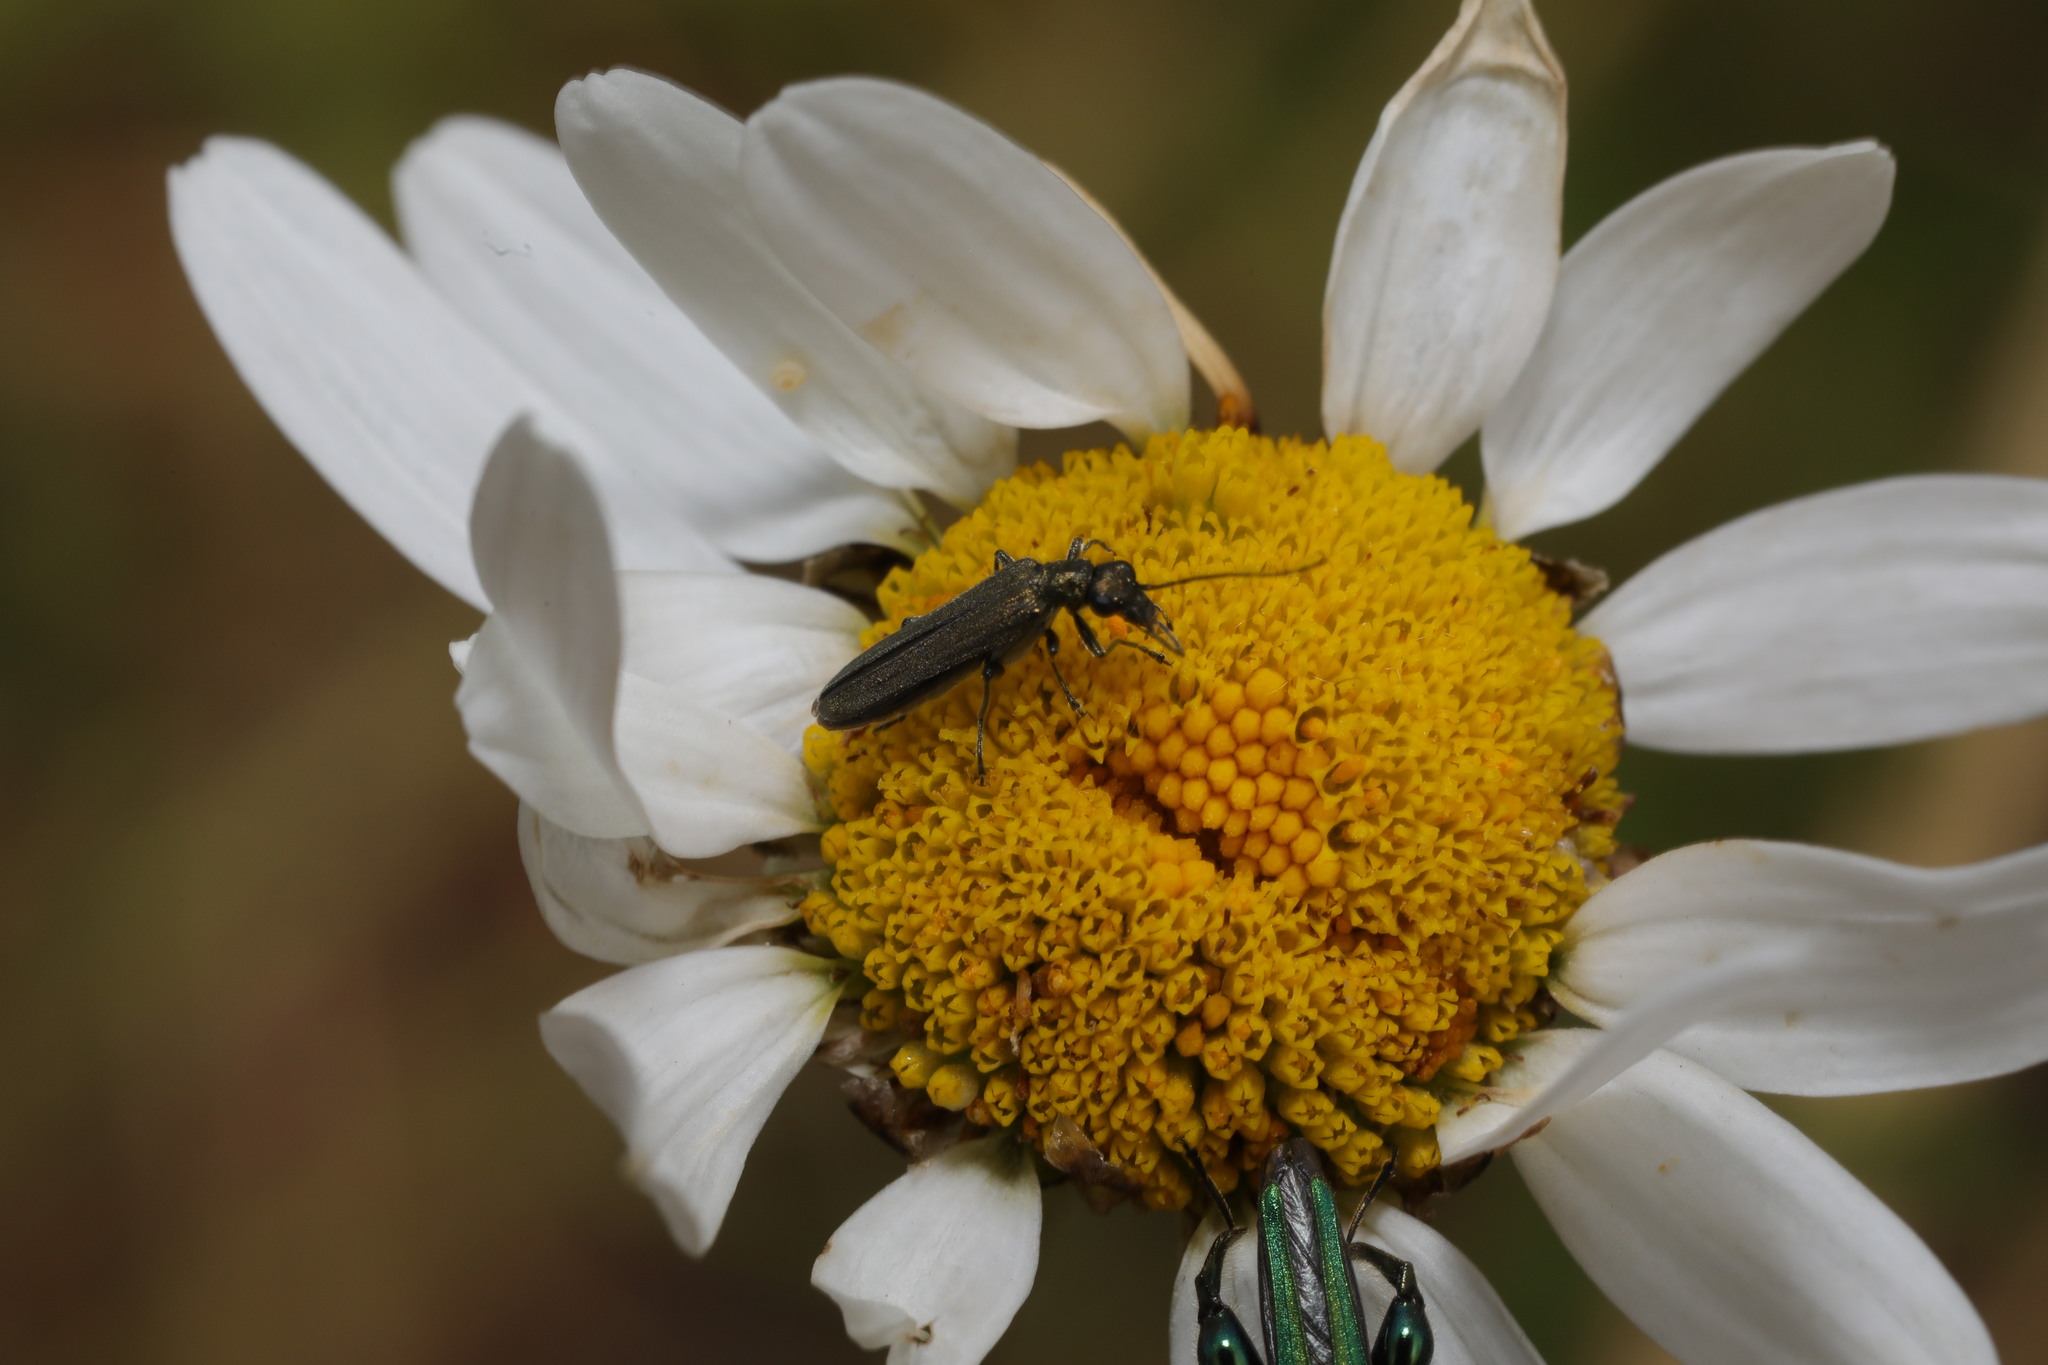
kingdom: Animalia
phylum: Arthropoda
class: Insecta
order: Coleoptera
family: Oedemeridae
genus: Oedemera
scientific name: Oedemera lurida
